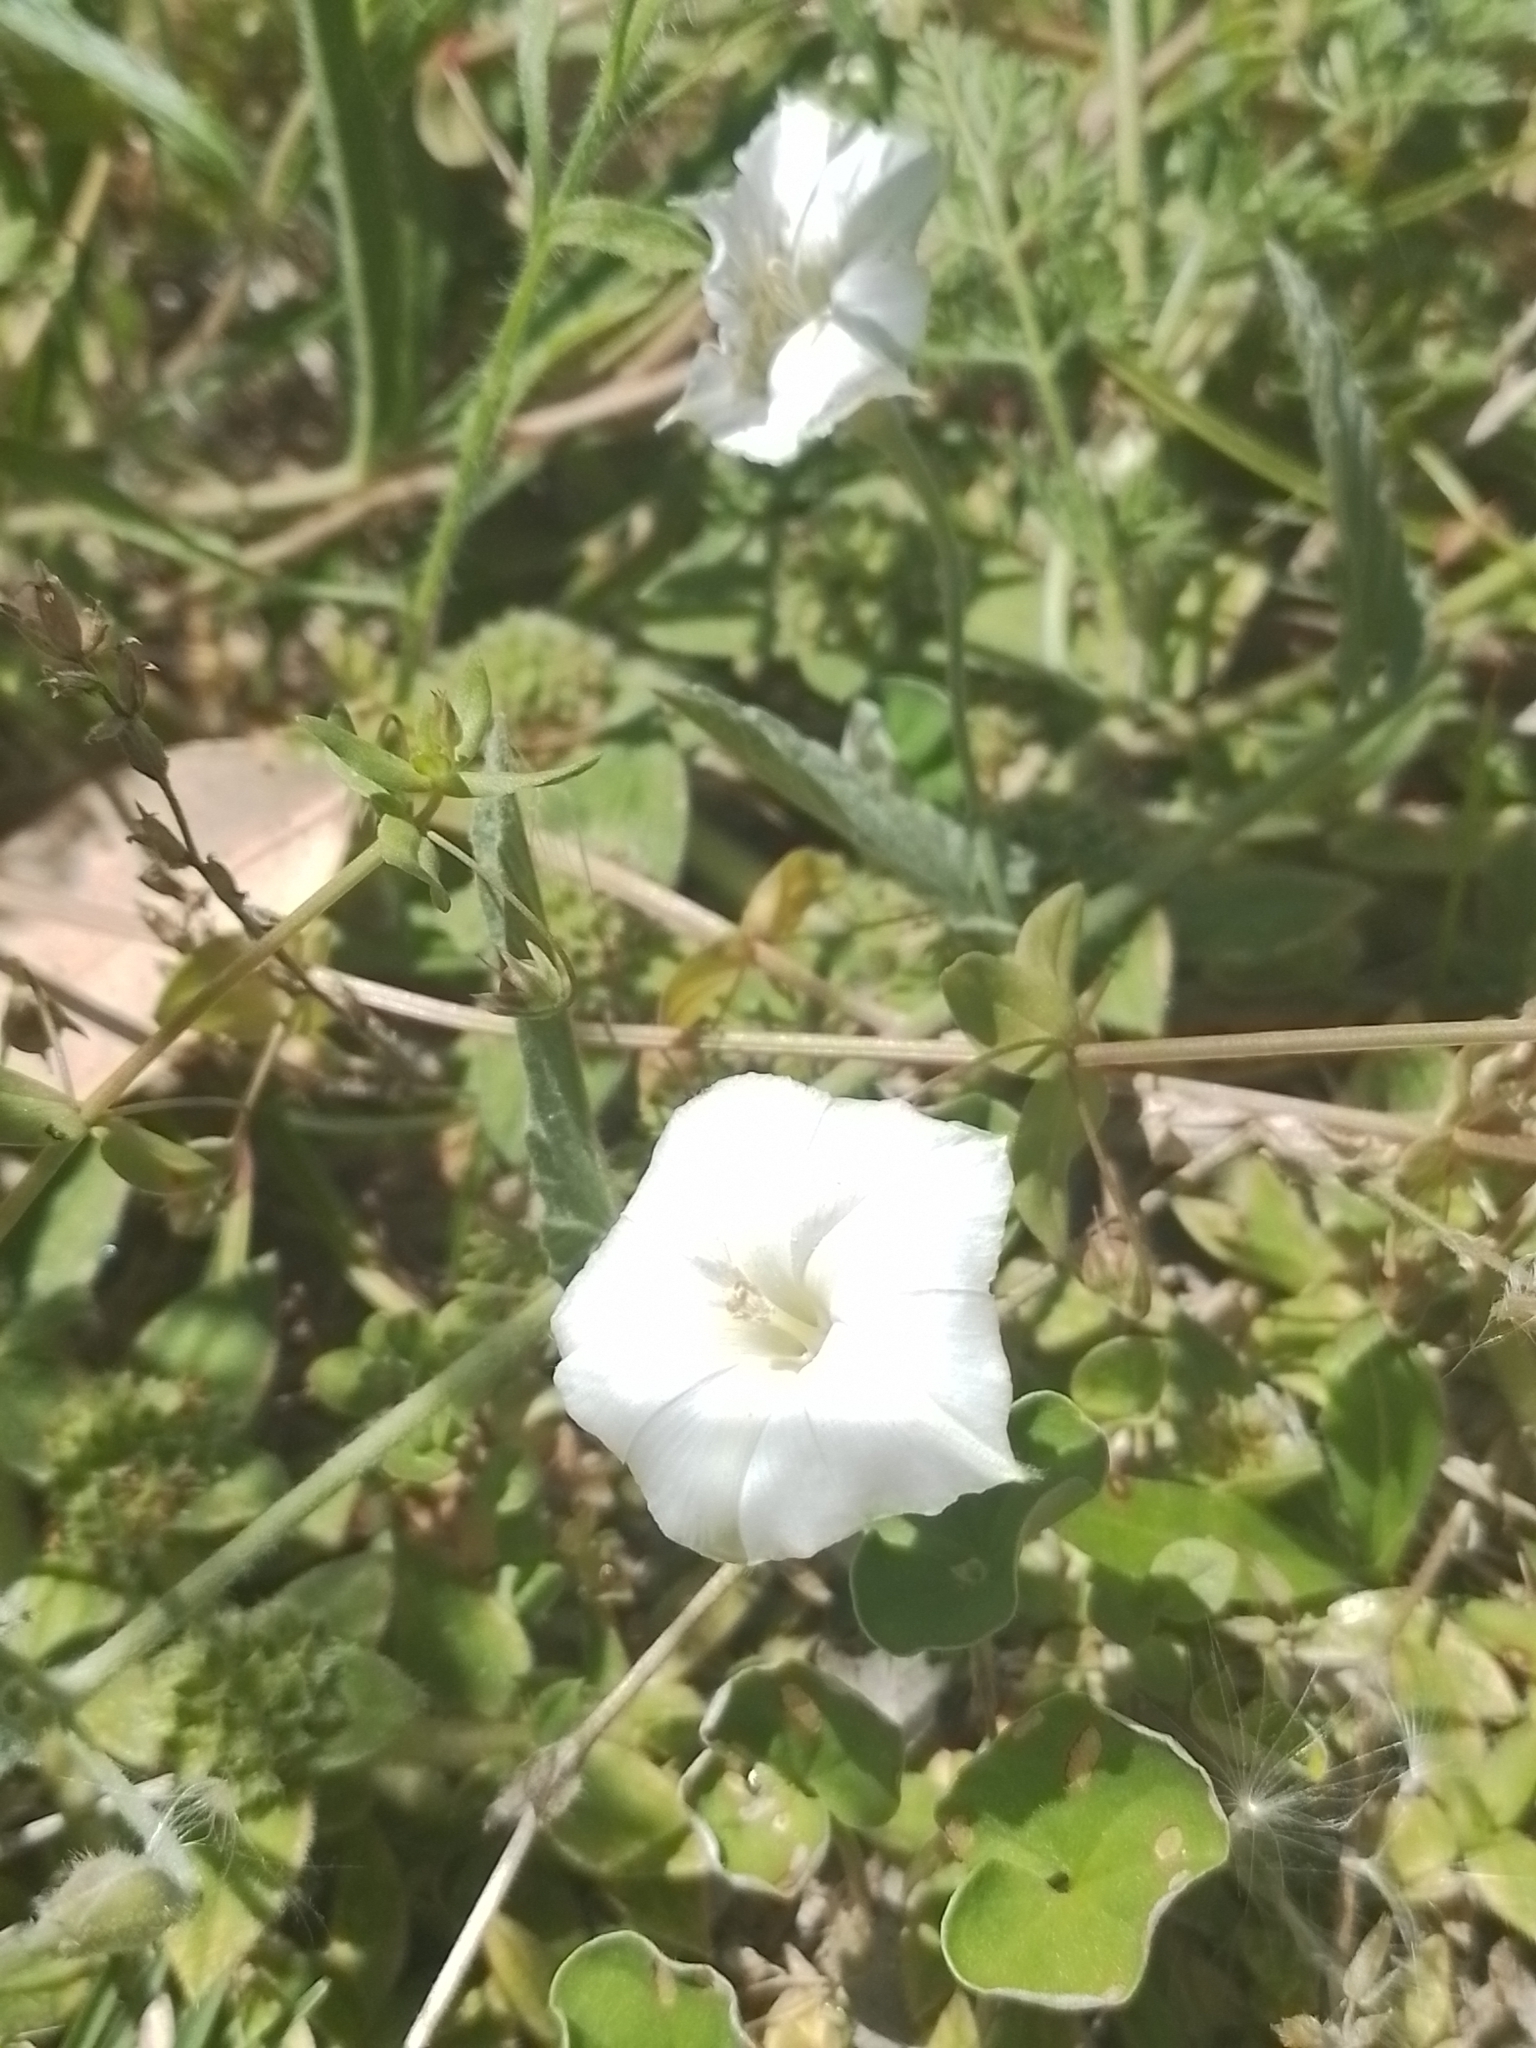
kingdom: Plantae
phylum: Tracheophyta
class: Magnoliopsida
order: Solanales
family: Convolvulaceae
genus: Convolvulus
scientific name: Convolvulus hermanniae
